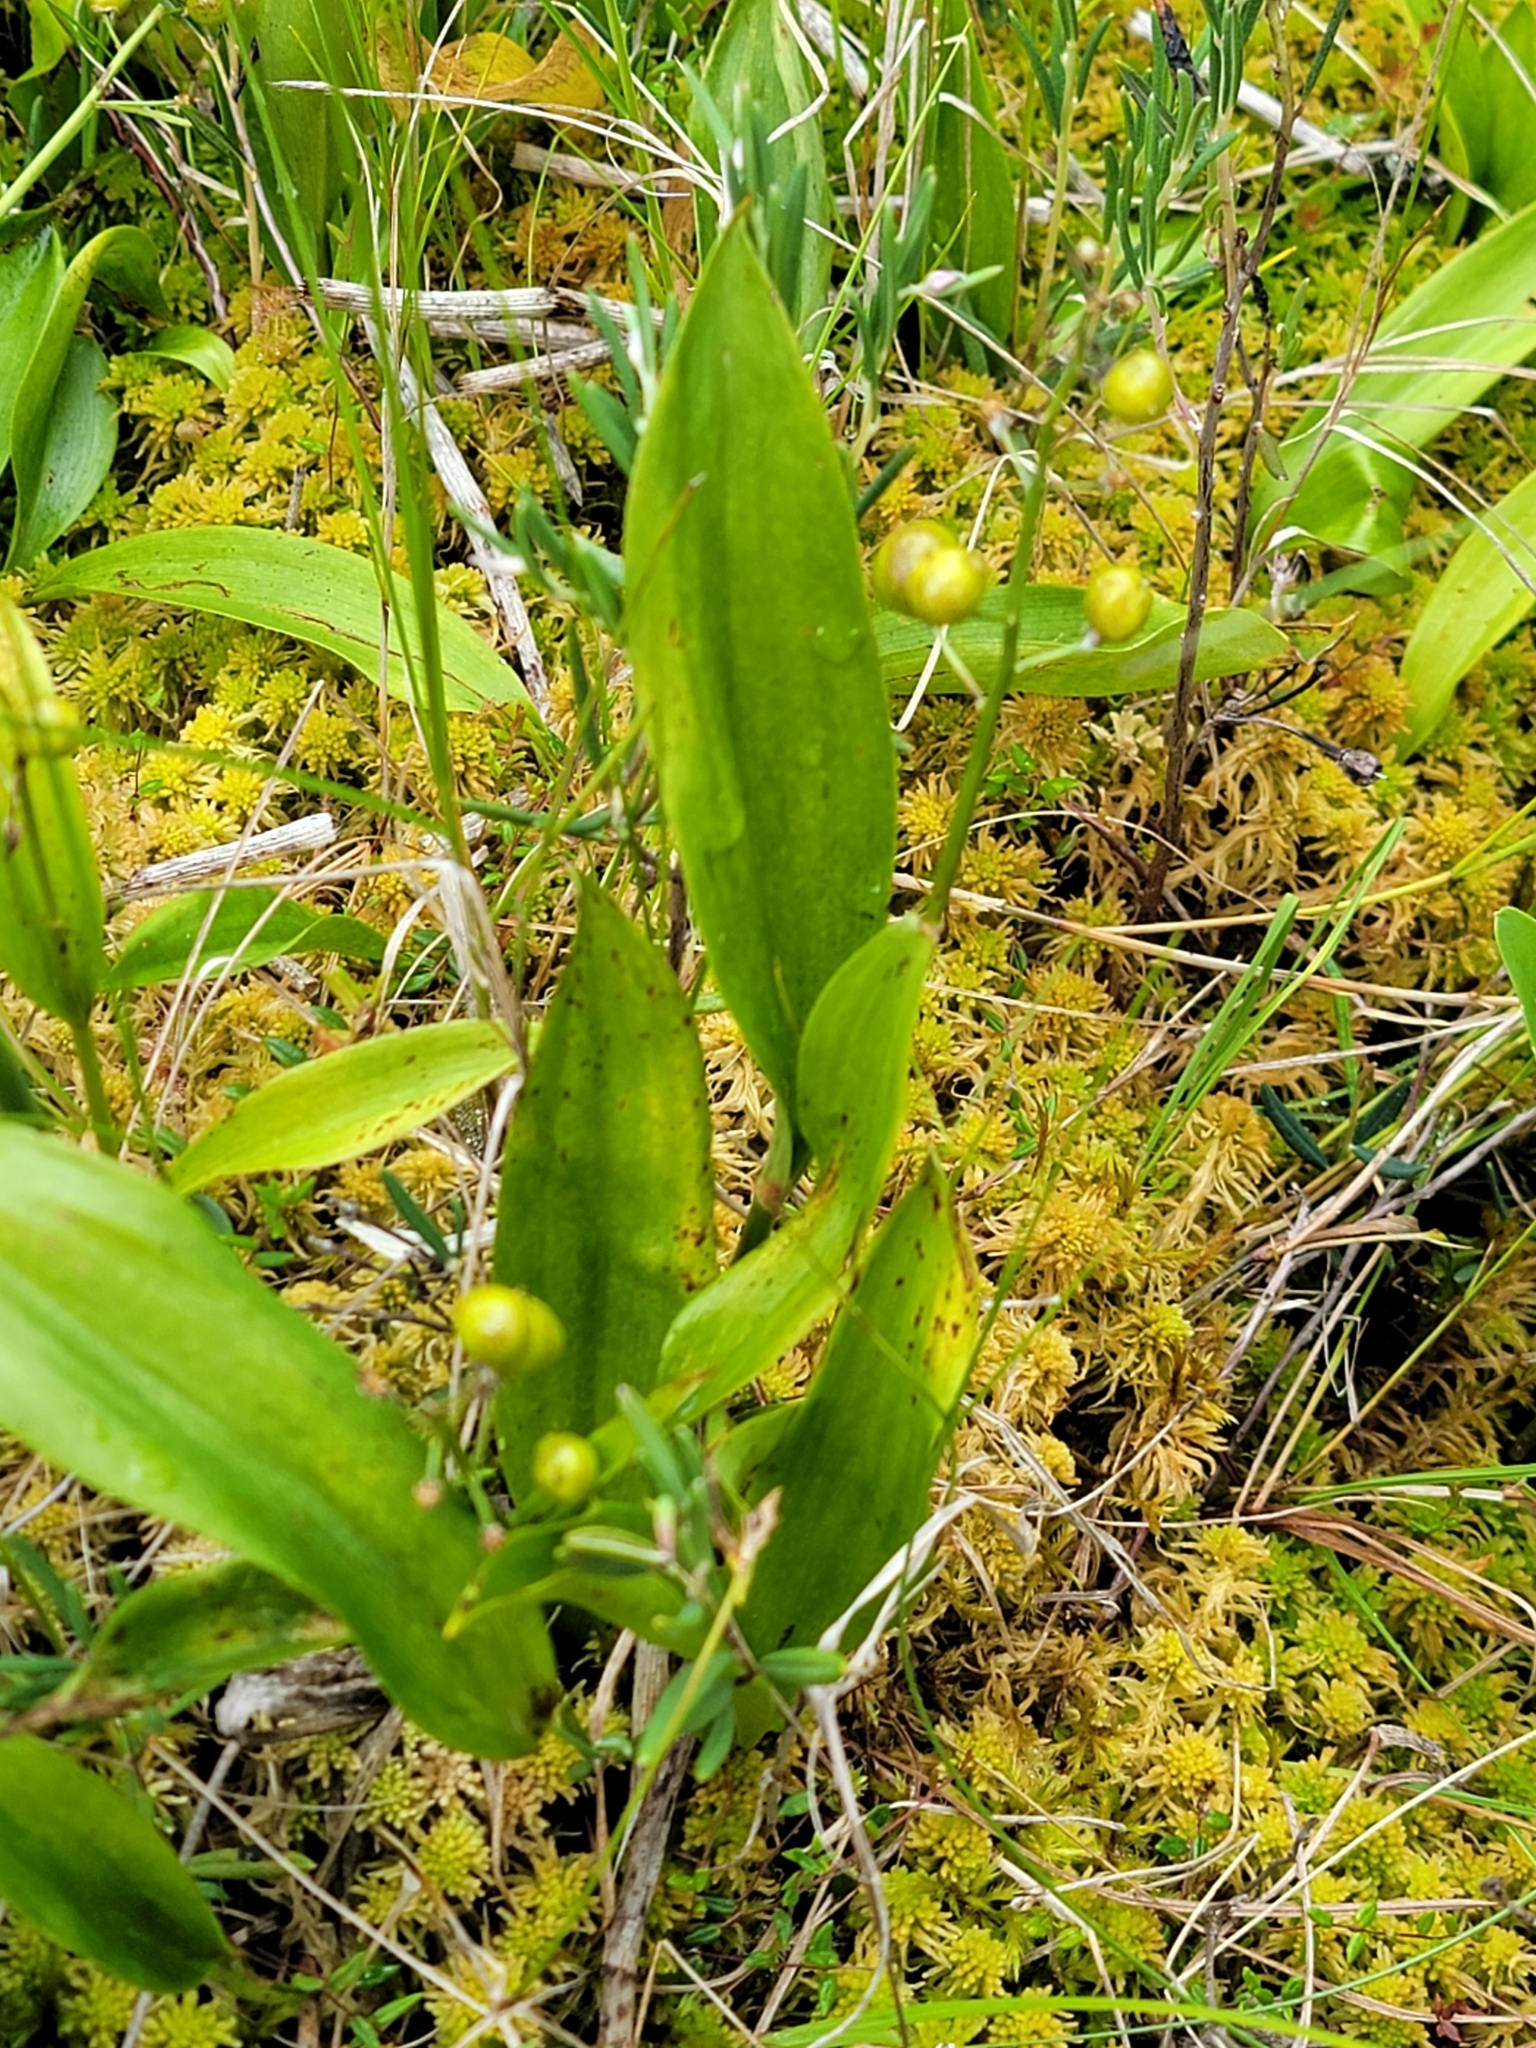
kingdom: Plantae
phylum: Tracheophyta
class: Liliopsida
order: Asparagales
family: Asparagaceae
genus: Maianthemum
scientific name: Maianthemum trifolium
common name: Swamp false solomon's seal
